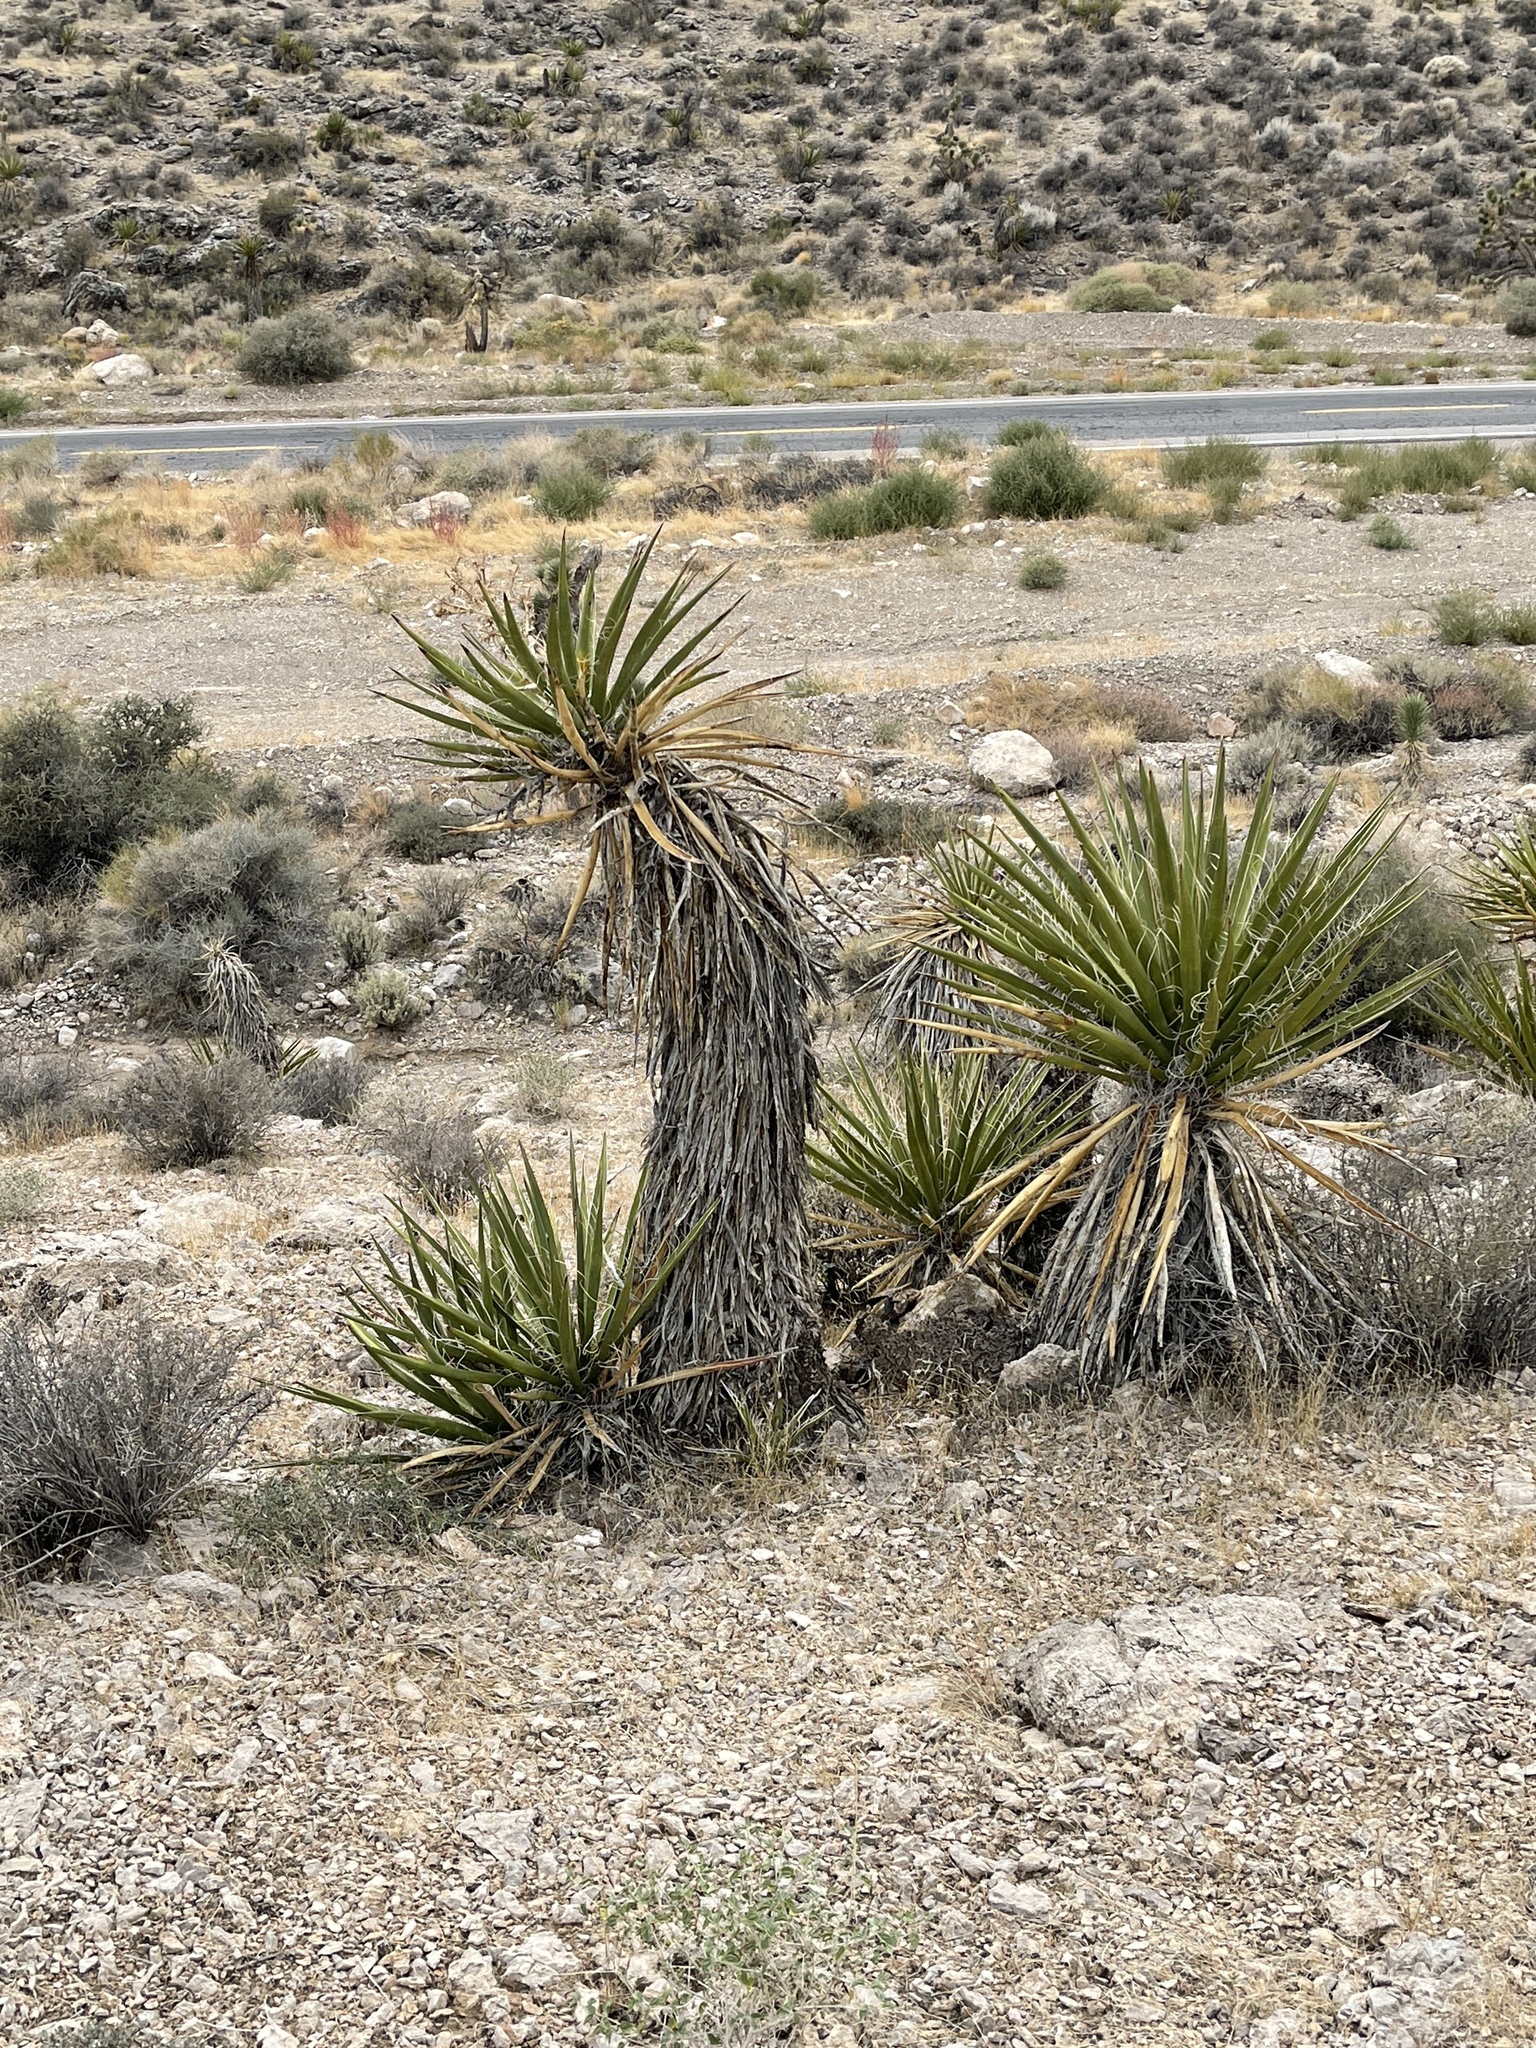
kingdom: Plantae
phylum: Tracheophyta
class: Liliopsida
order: Asparagales
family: Asparagaceae
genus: Yucca
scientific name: Yucca schidigera
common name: Mojave yucca
